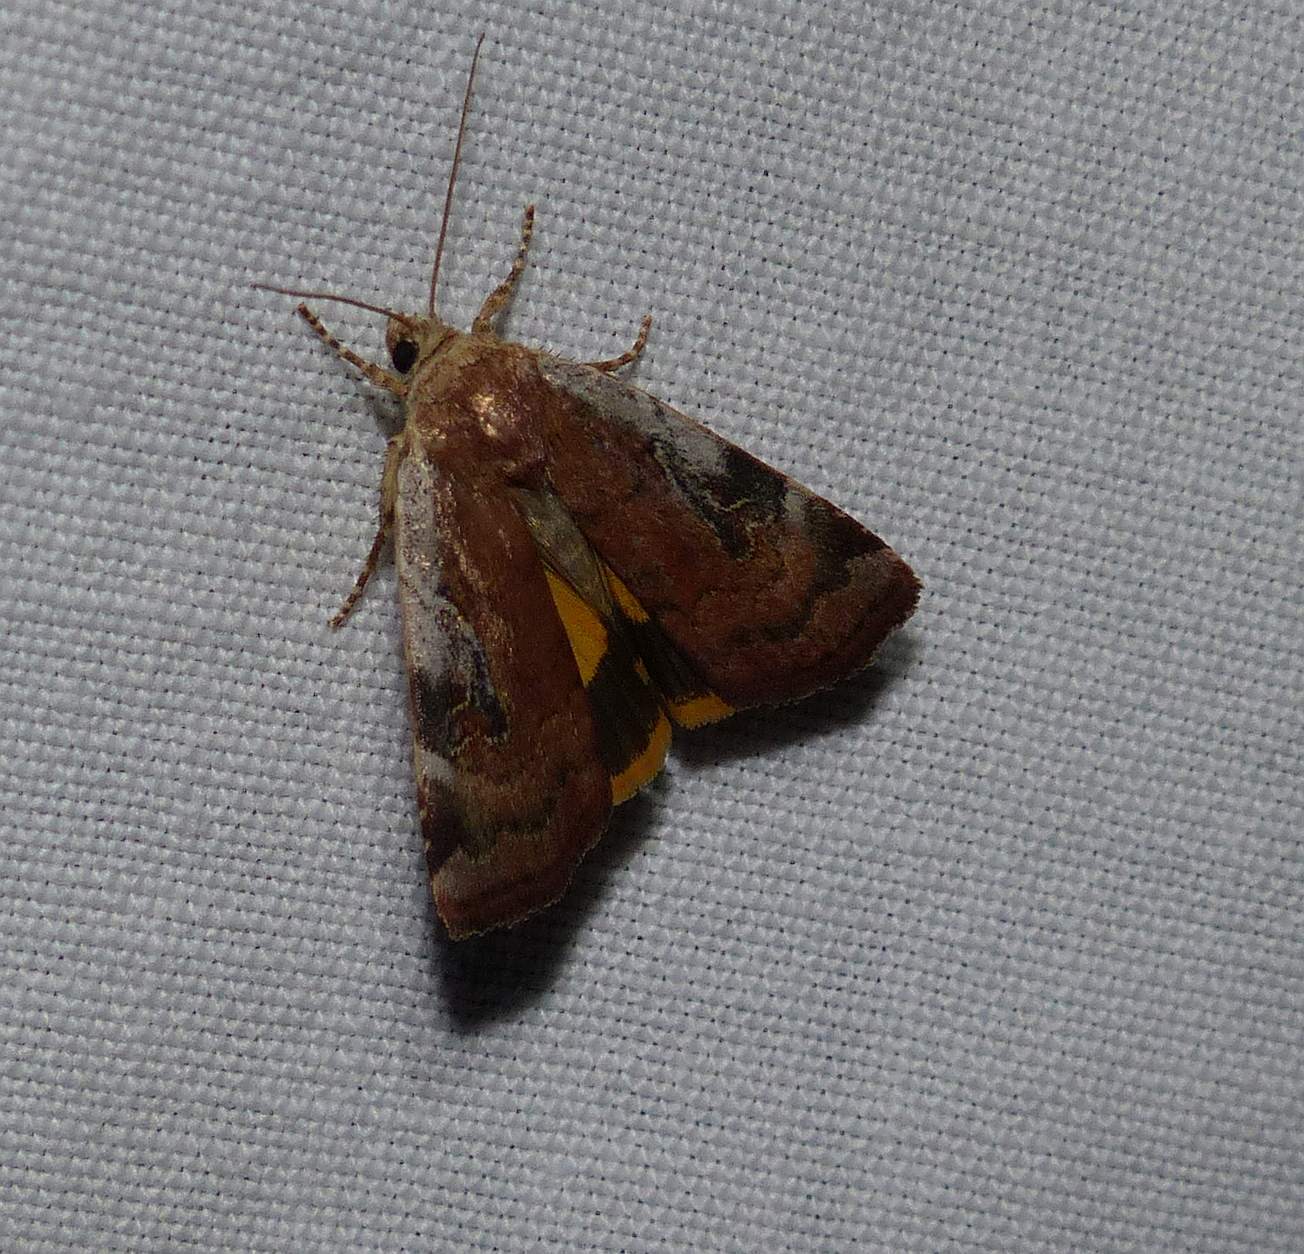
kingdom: Animalia
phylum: Arthropoda
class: Insecta
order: Lepidoptera
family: Noctuidae
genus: Cryptocala
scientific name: Cryptocala acadiensis
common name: Catocaline dart
